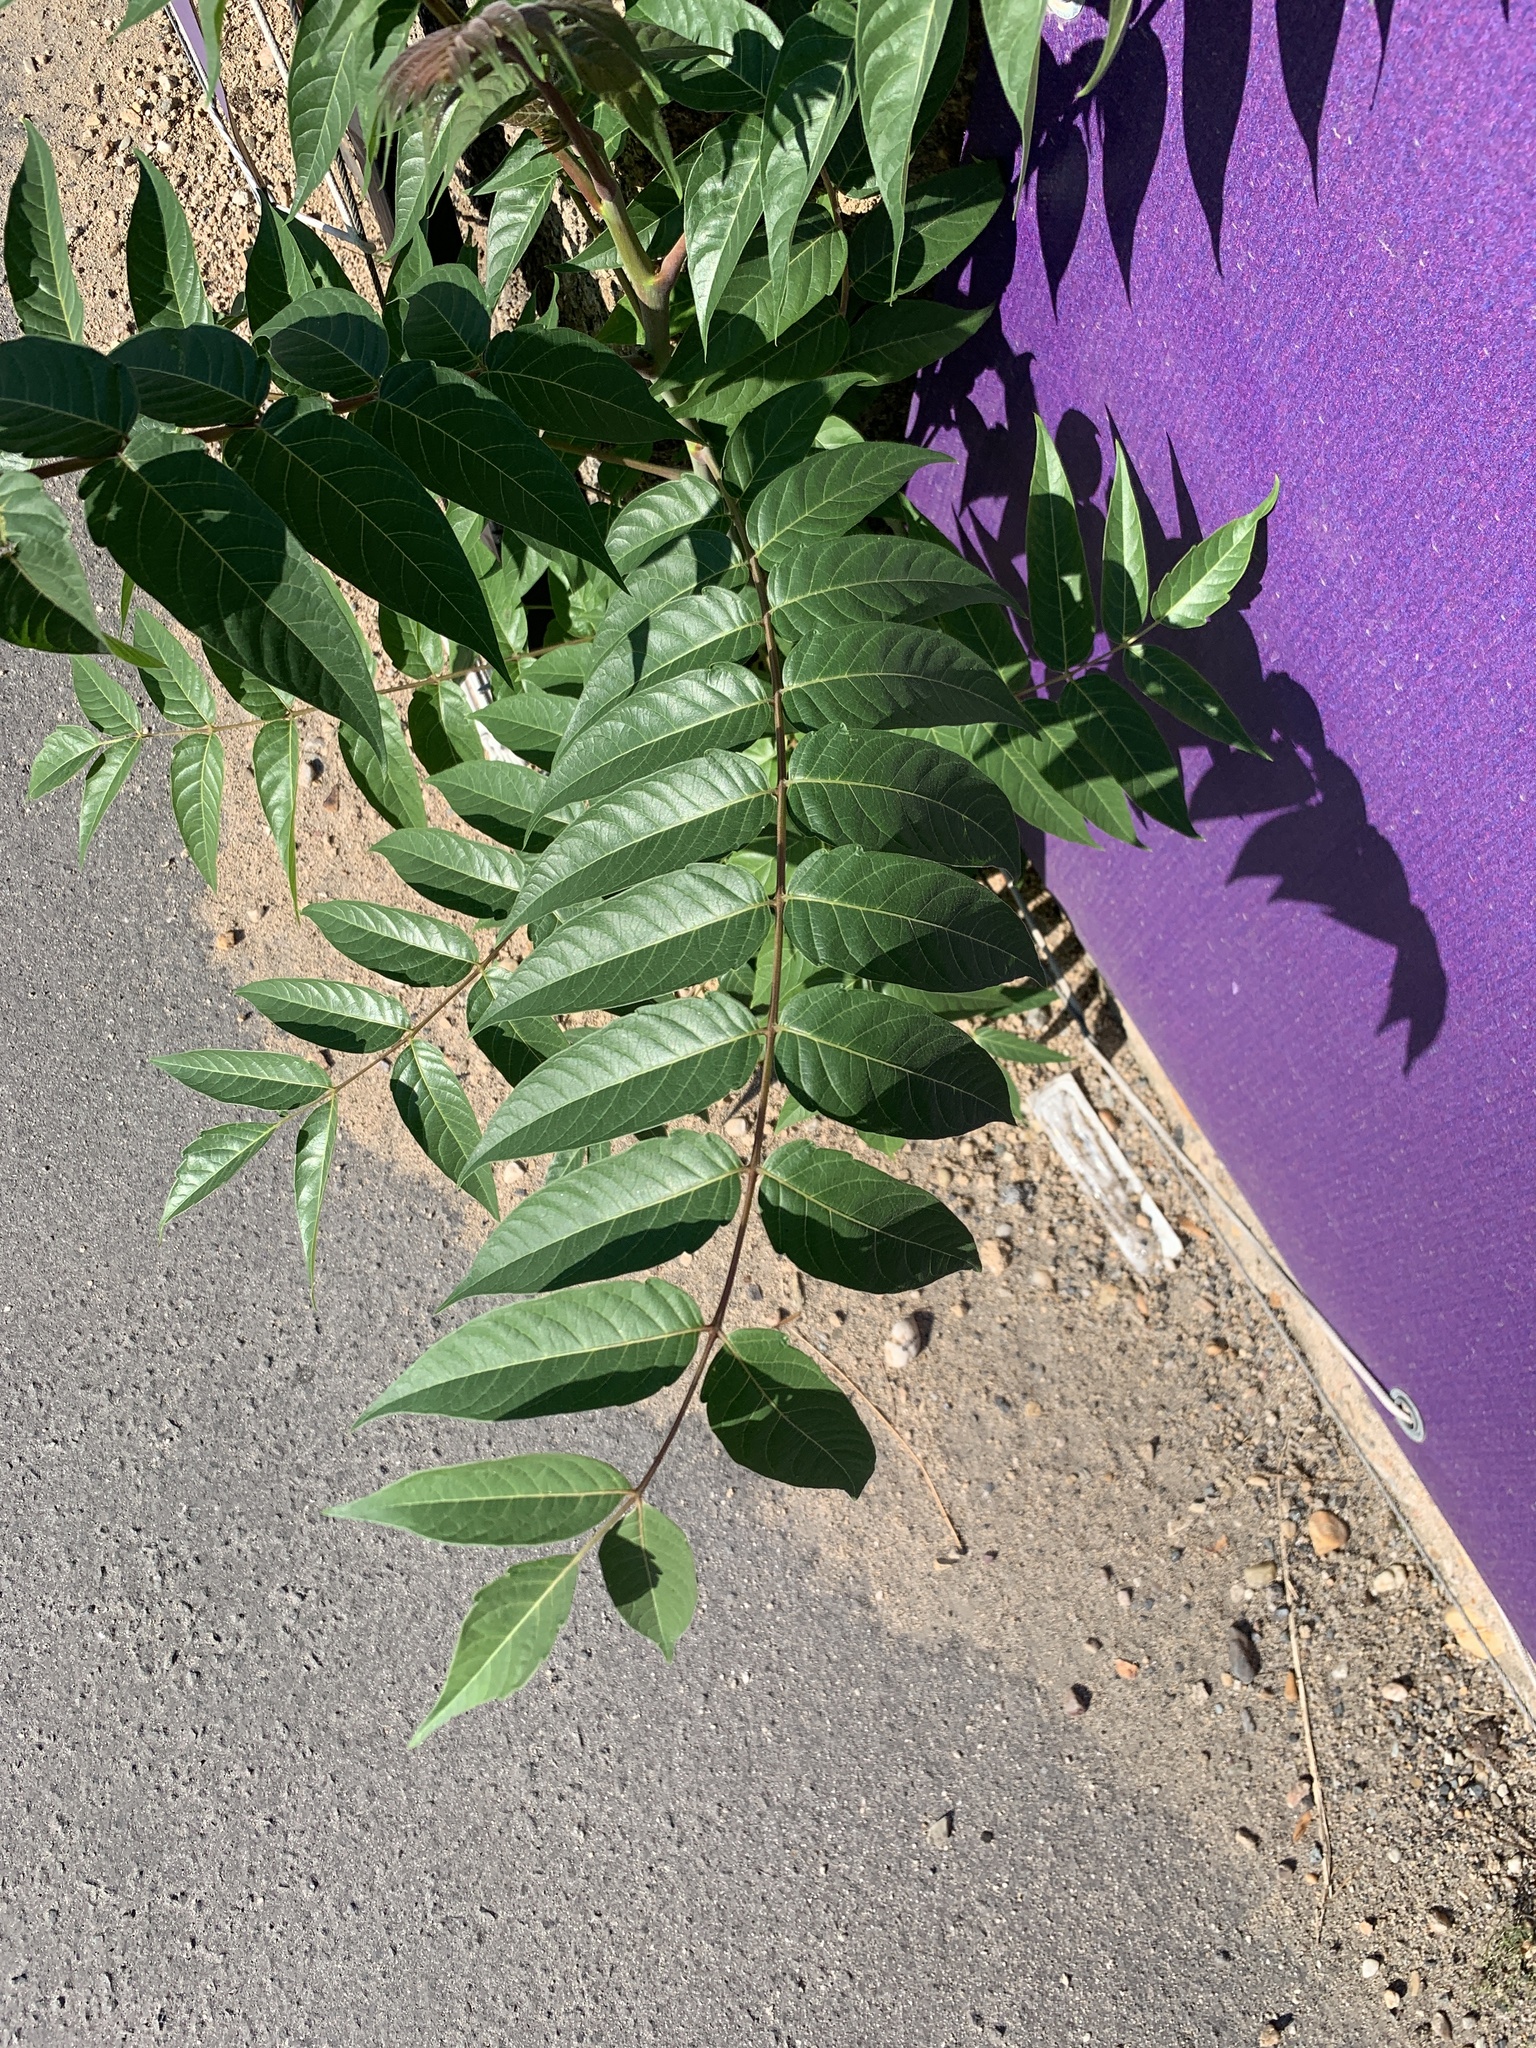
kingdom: Plantae
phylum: Tracheophyta
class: Magnoliopsida
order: Sapindales
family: Simaroubaceae
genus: Ailanthus
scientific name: Ailanthus altissima
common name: Tree-of-heaven
